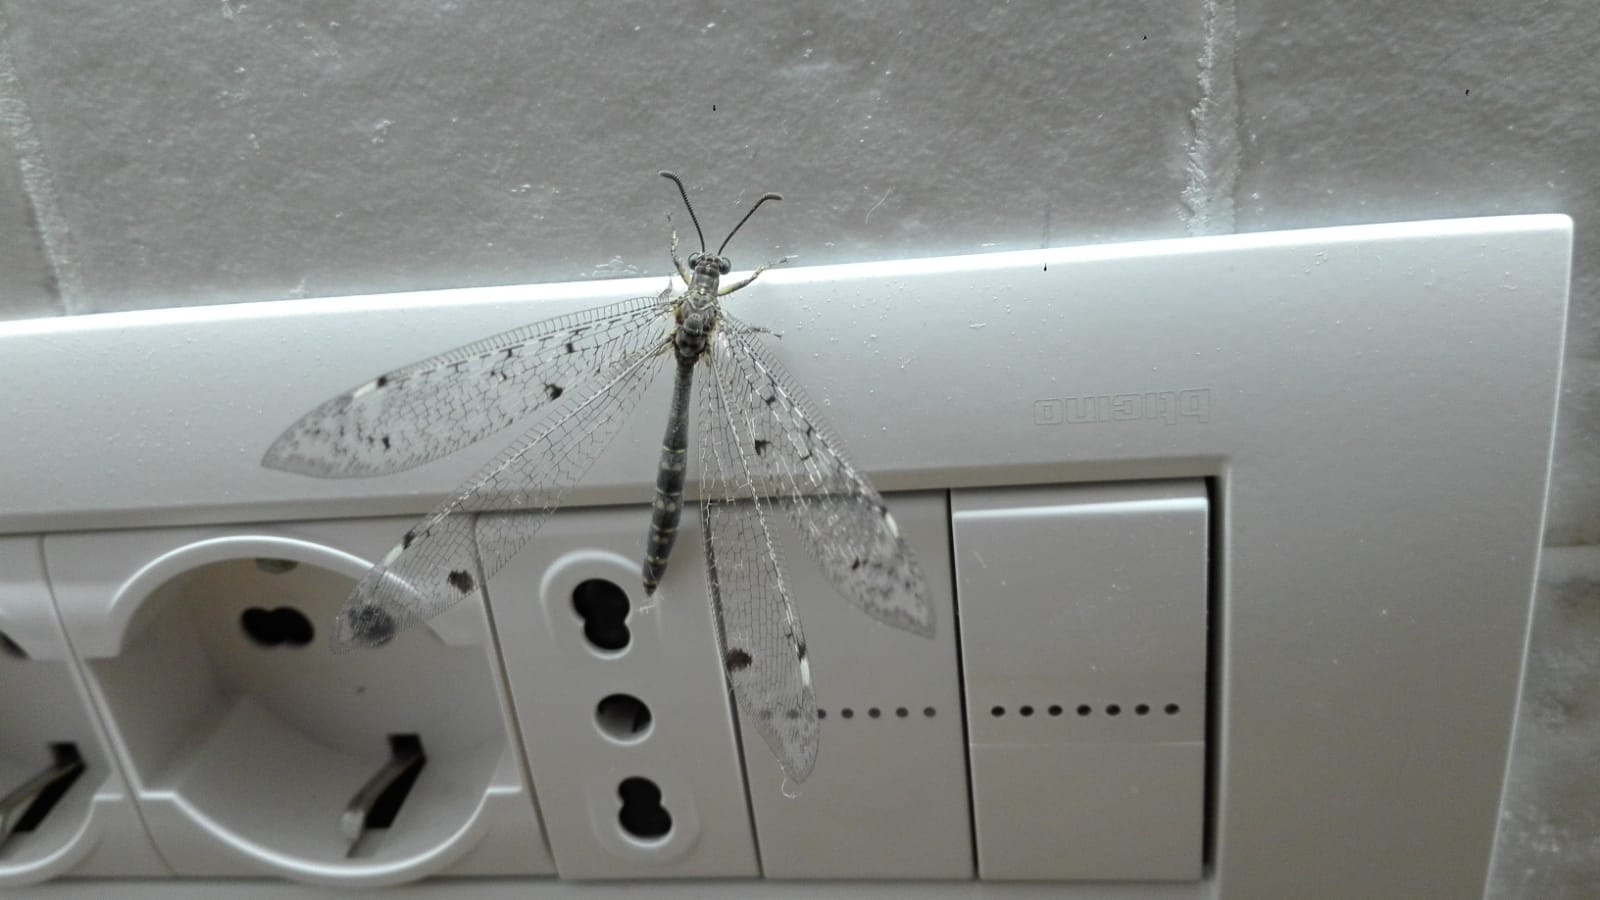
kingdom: Animalia
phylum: Arthropoda
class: Insecta
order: Neuroptera
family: Myrmeleontidae
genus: Distoleon
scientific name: Distoleon tetragrammicus
